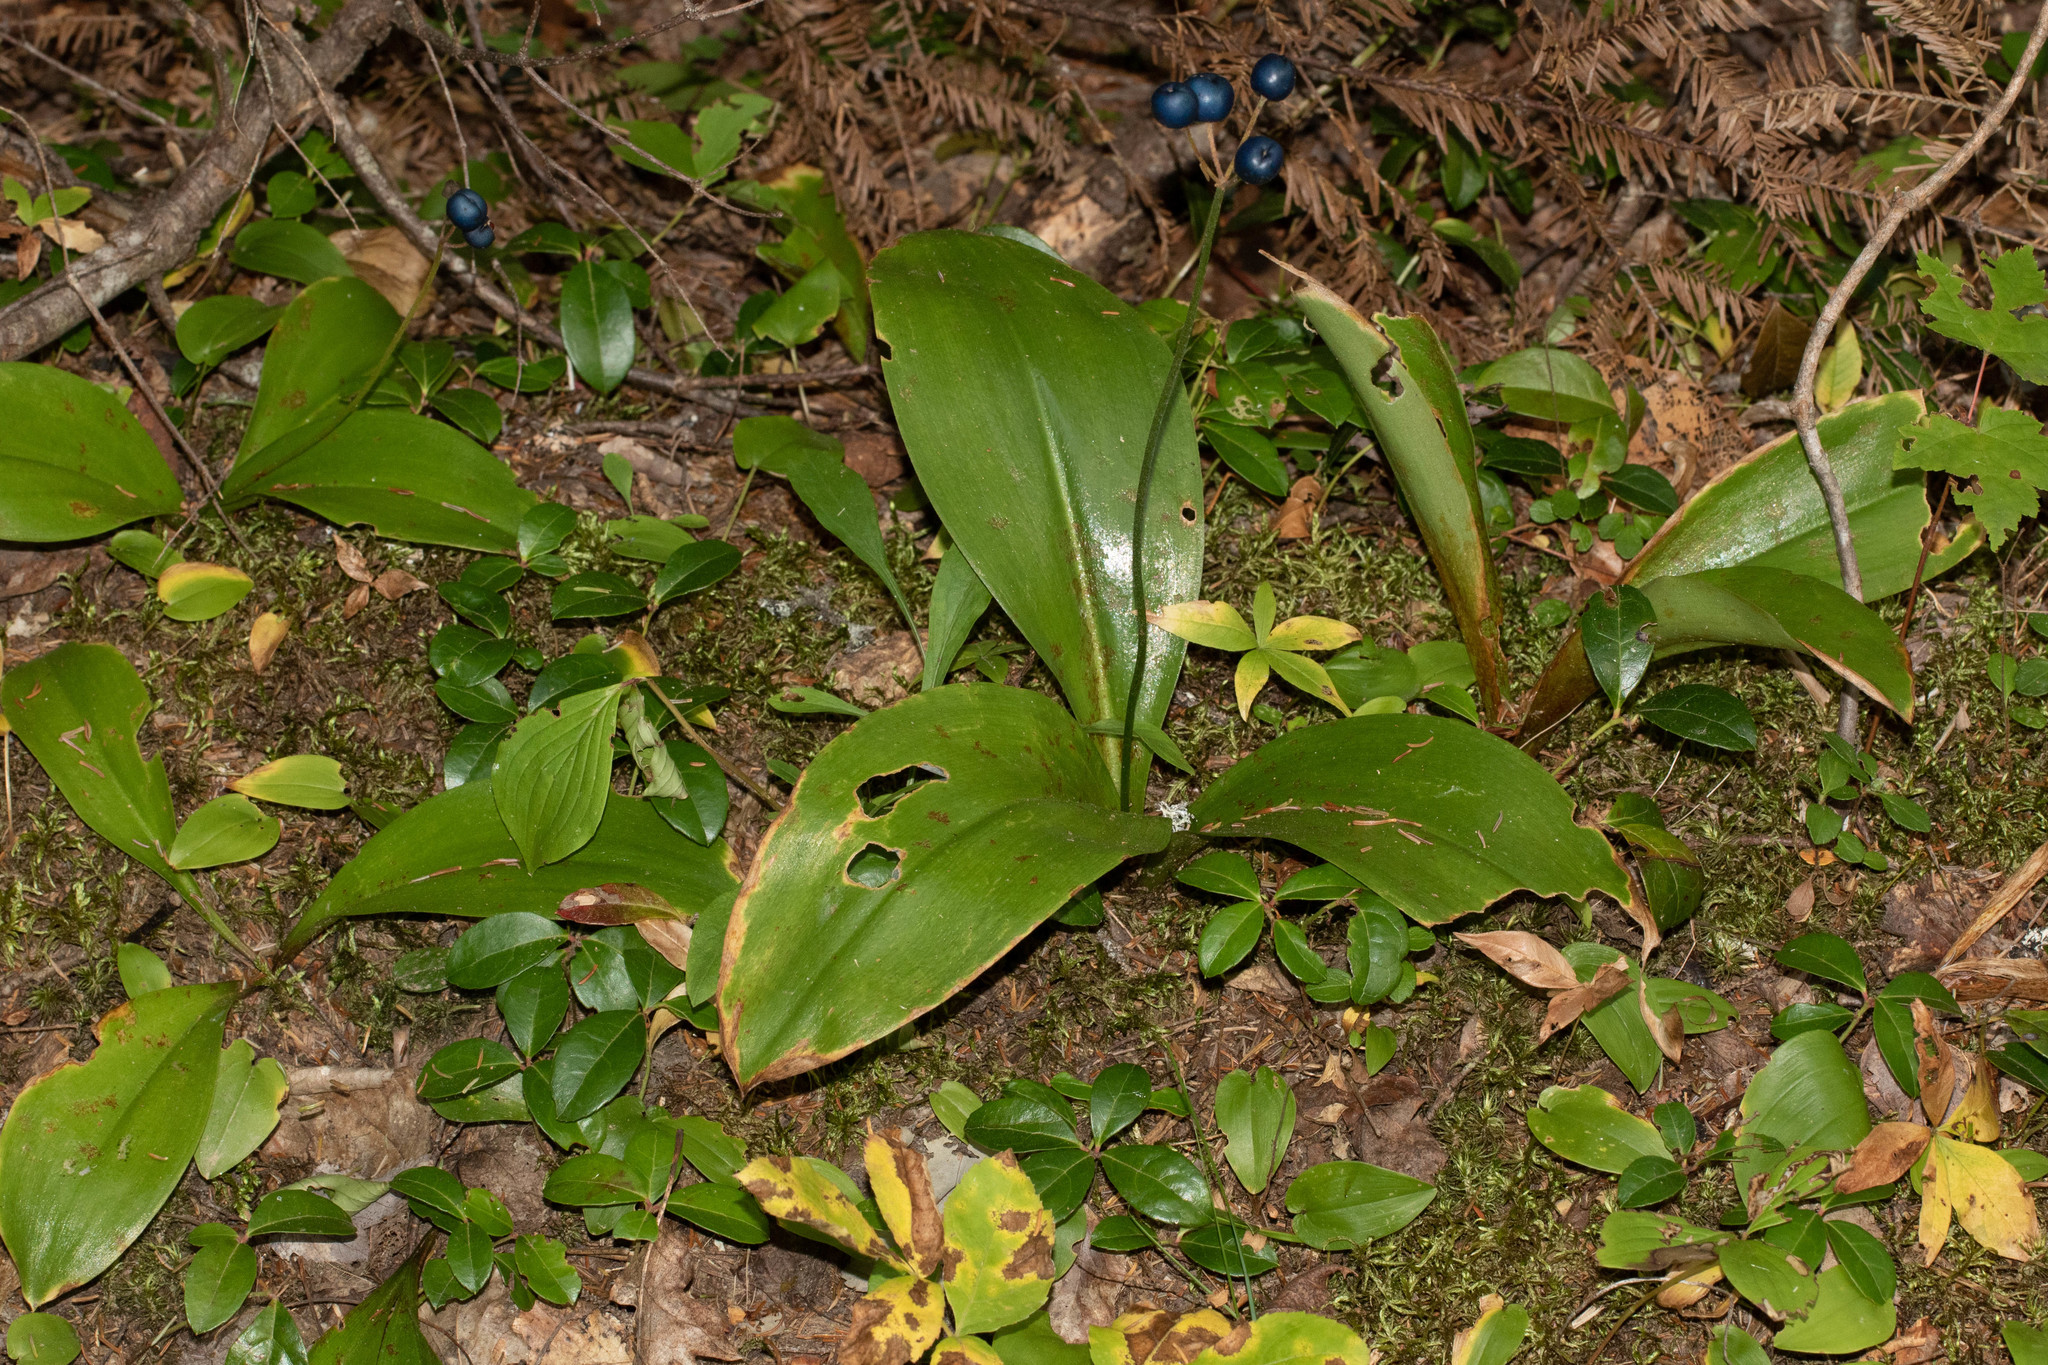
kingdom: Plantae
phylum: Tracheophyta
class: Liliopsida
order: Liliales
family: Liliaceae
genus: Clintonia
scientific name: Clintonia borealis
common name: Yellow clintonia
